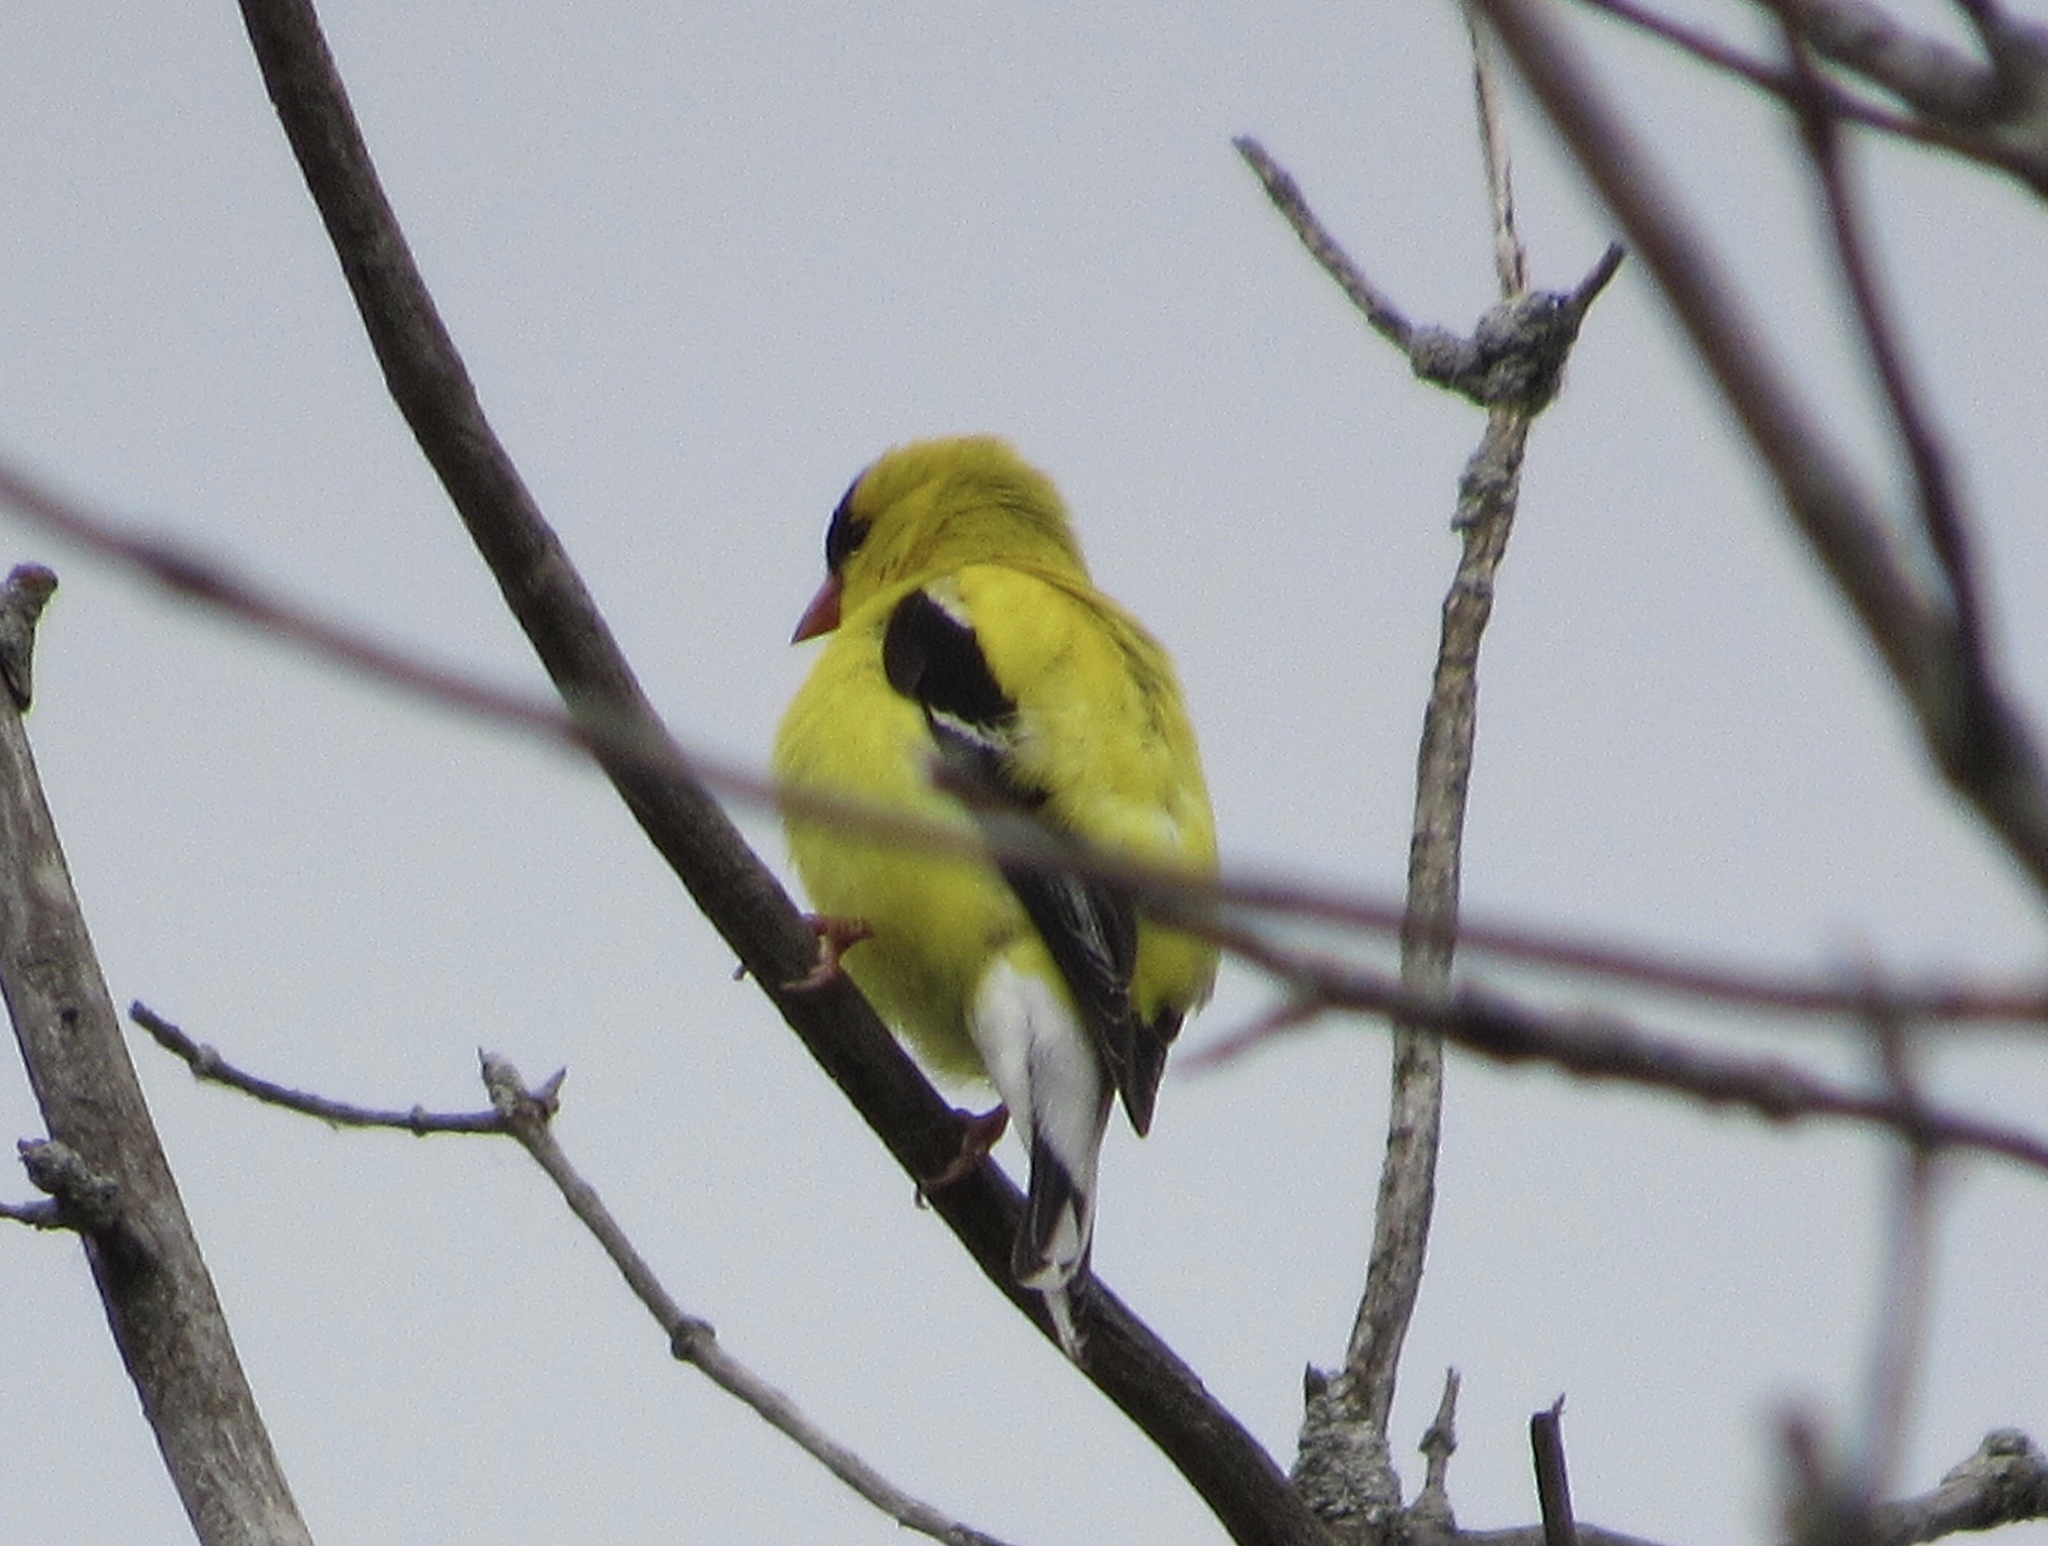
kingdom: Animalia
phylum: Chordata
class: Aves
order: Passeriformes
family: Fringillidae
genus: Spinus
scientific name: Spinus tristis
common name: American goldfinch
